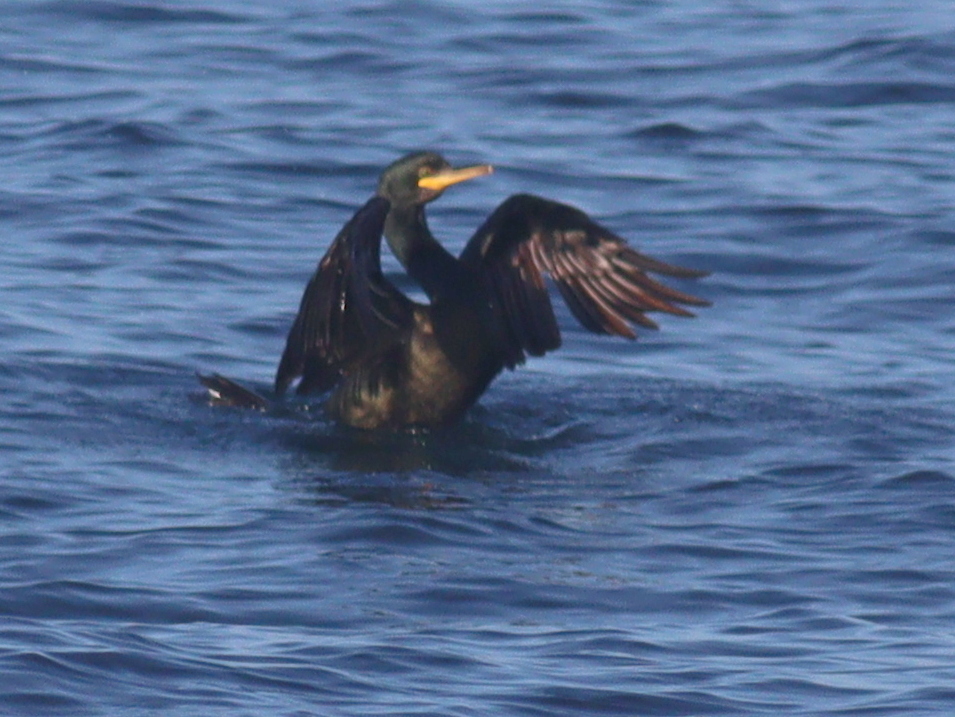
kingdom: Animalia
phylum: Chordata
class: Aves
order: Suliformes
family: Phalacrocoracidae
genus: Phalacrocorax
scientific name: Phalacrocorax aristotelis
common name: European shag
